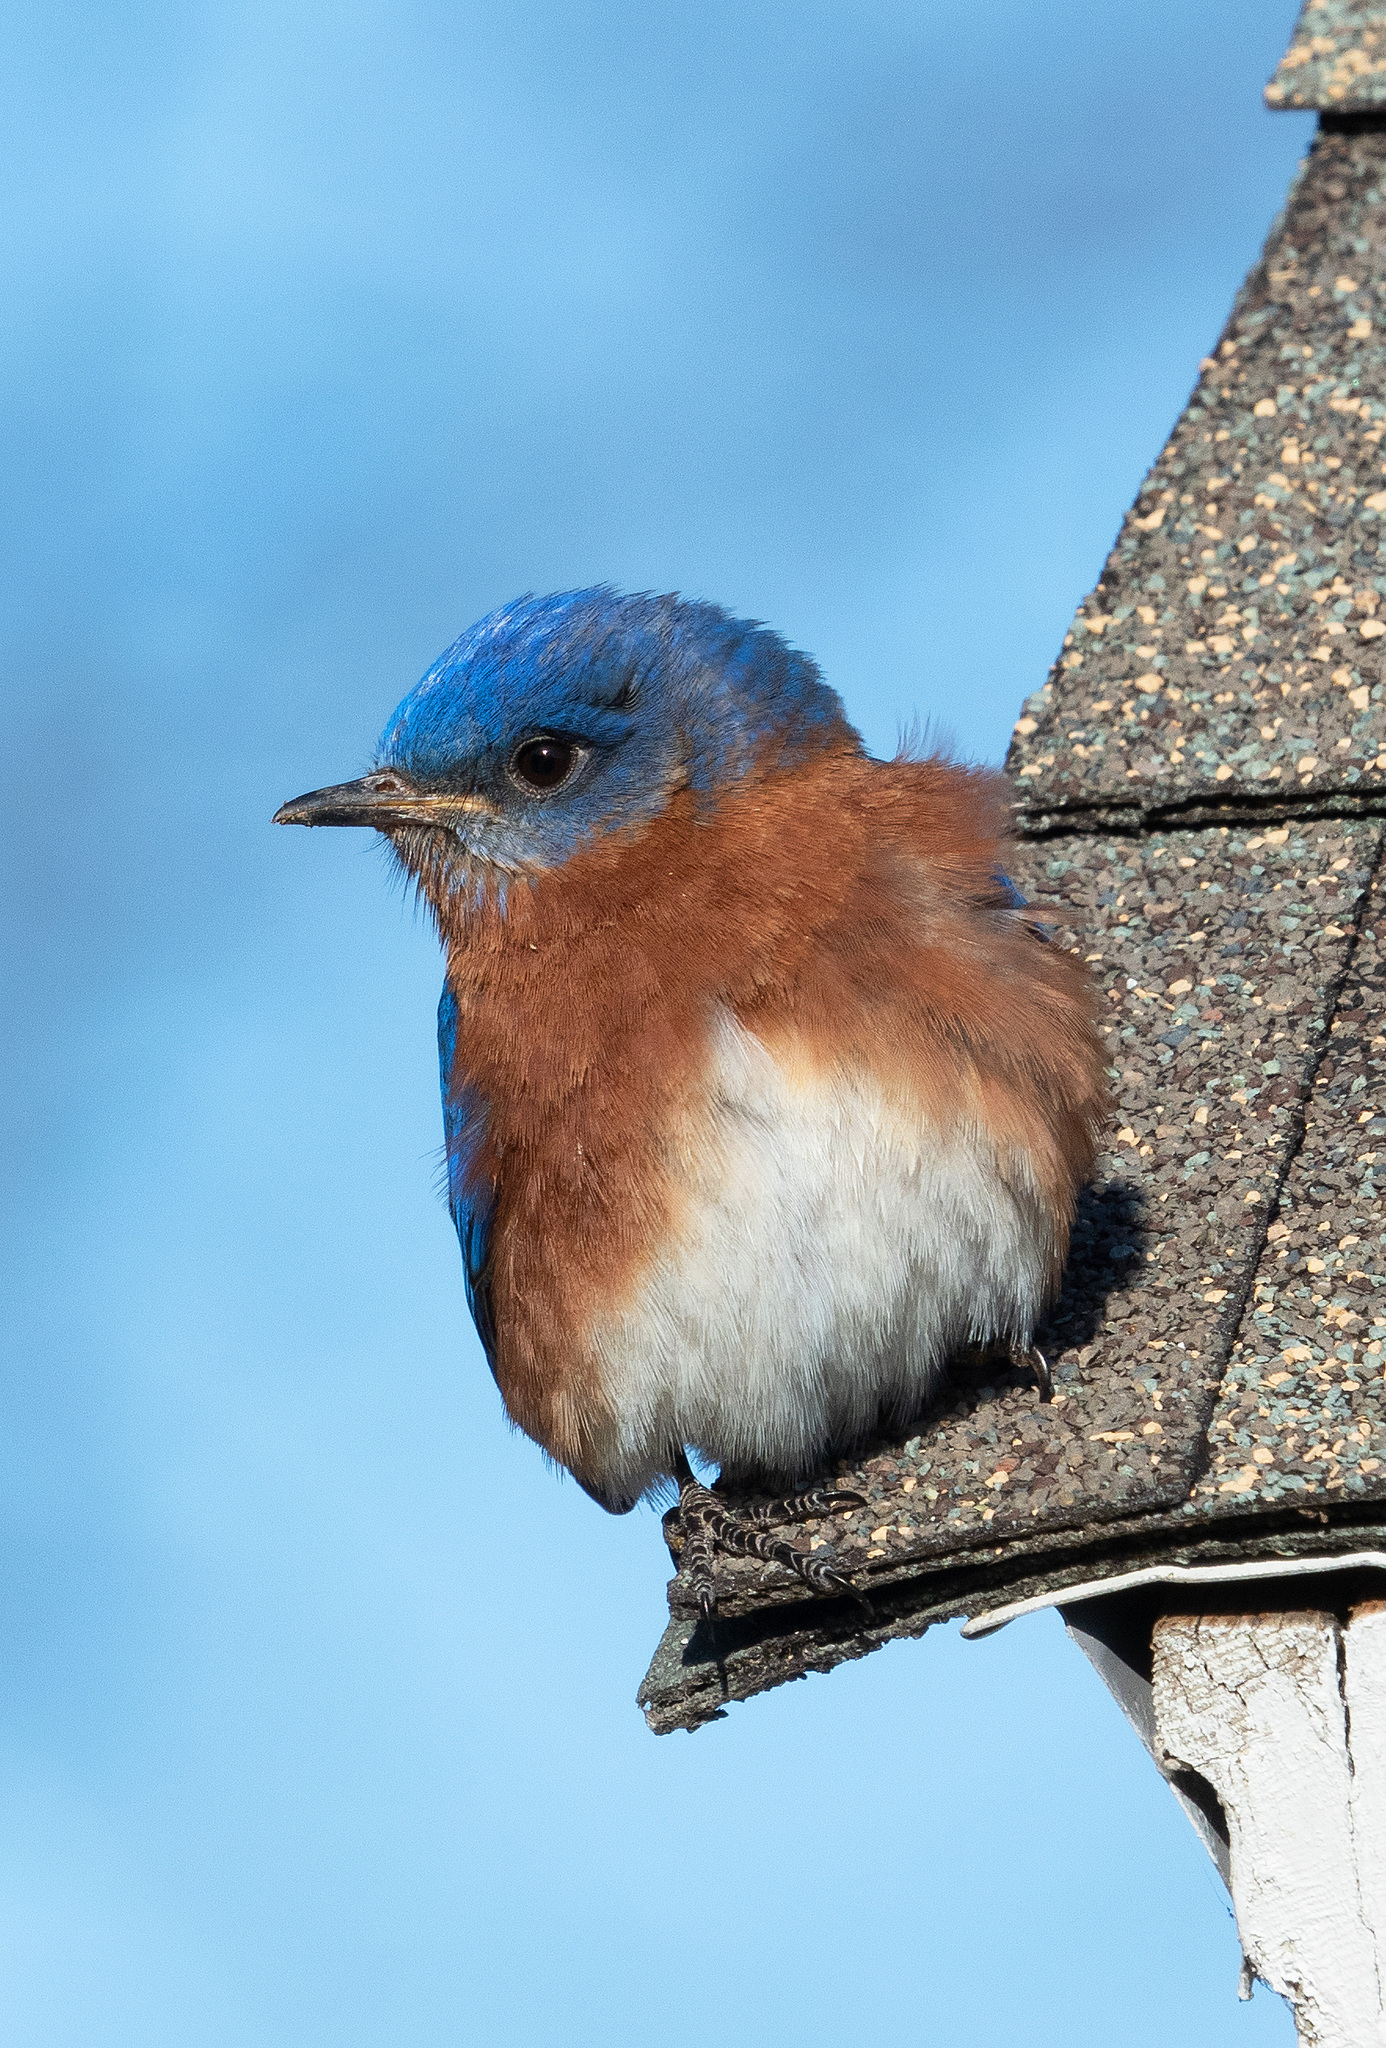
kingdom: Animalia
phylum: Chordata
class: Aves
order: Passeriformes
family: Turdidae
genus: Sialia
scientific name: Sialia sialis
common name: Eastern bluebird
